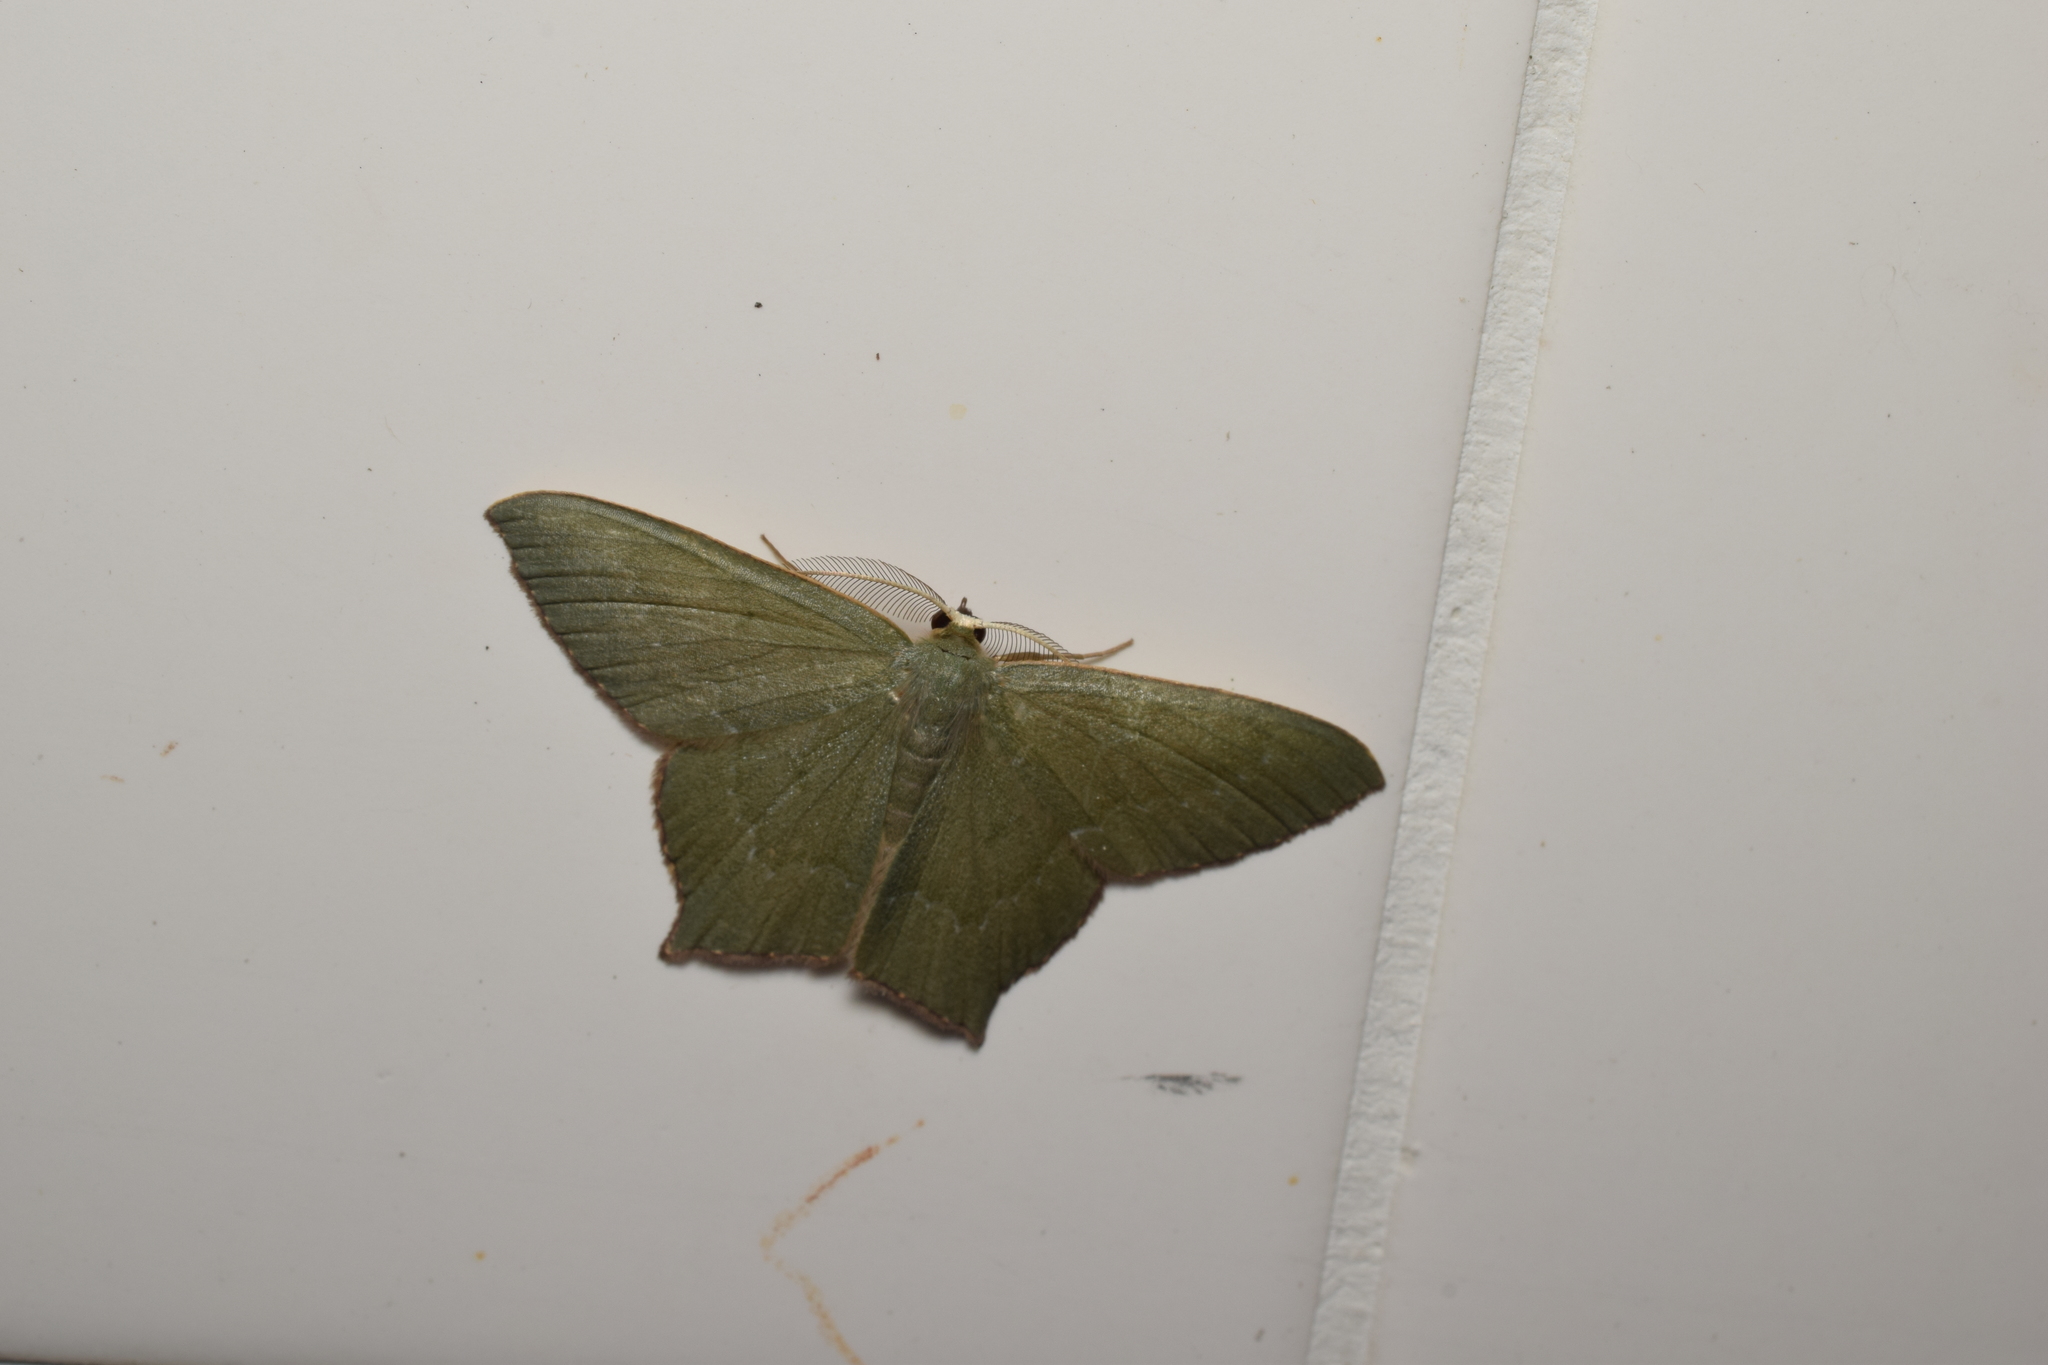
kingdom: Animalia
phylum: Arthropoda
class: Insecta
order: Lepidoptera
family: Geometridae
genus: Maxates
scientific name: Maxates illiturata
